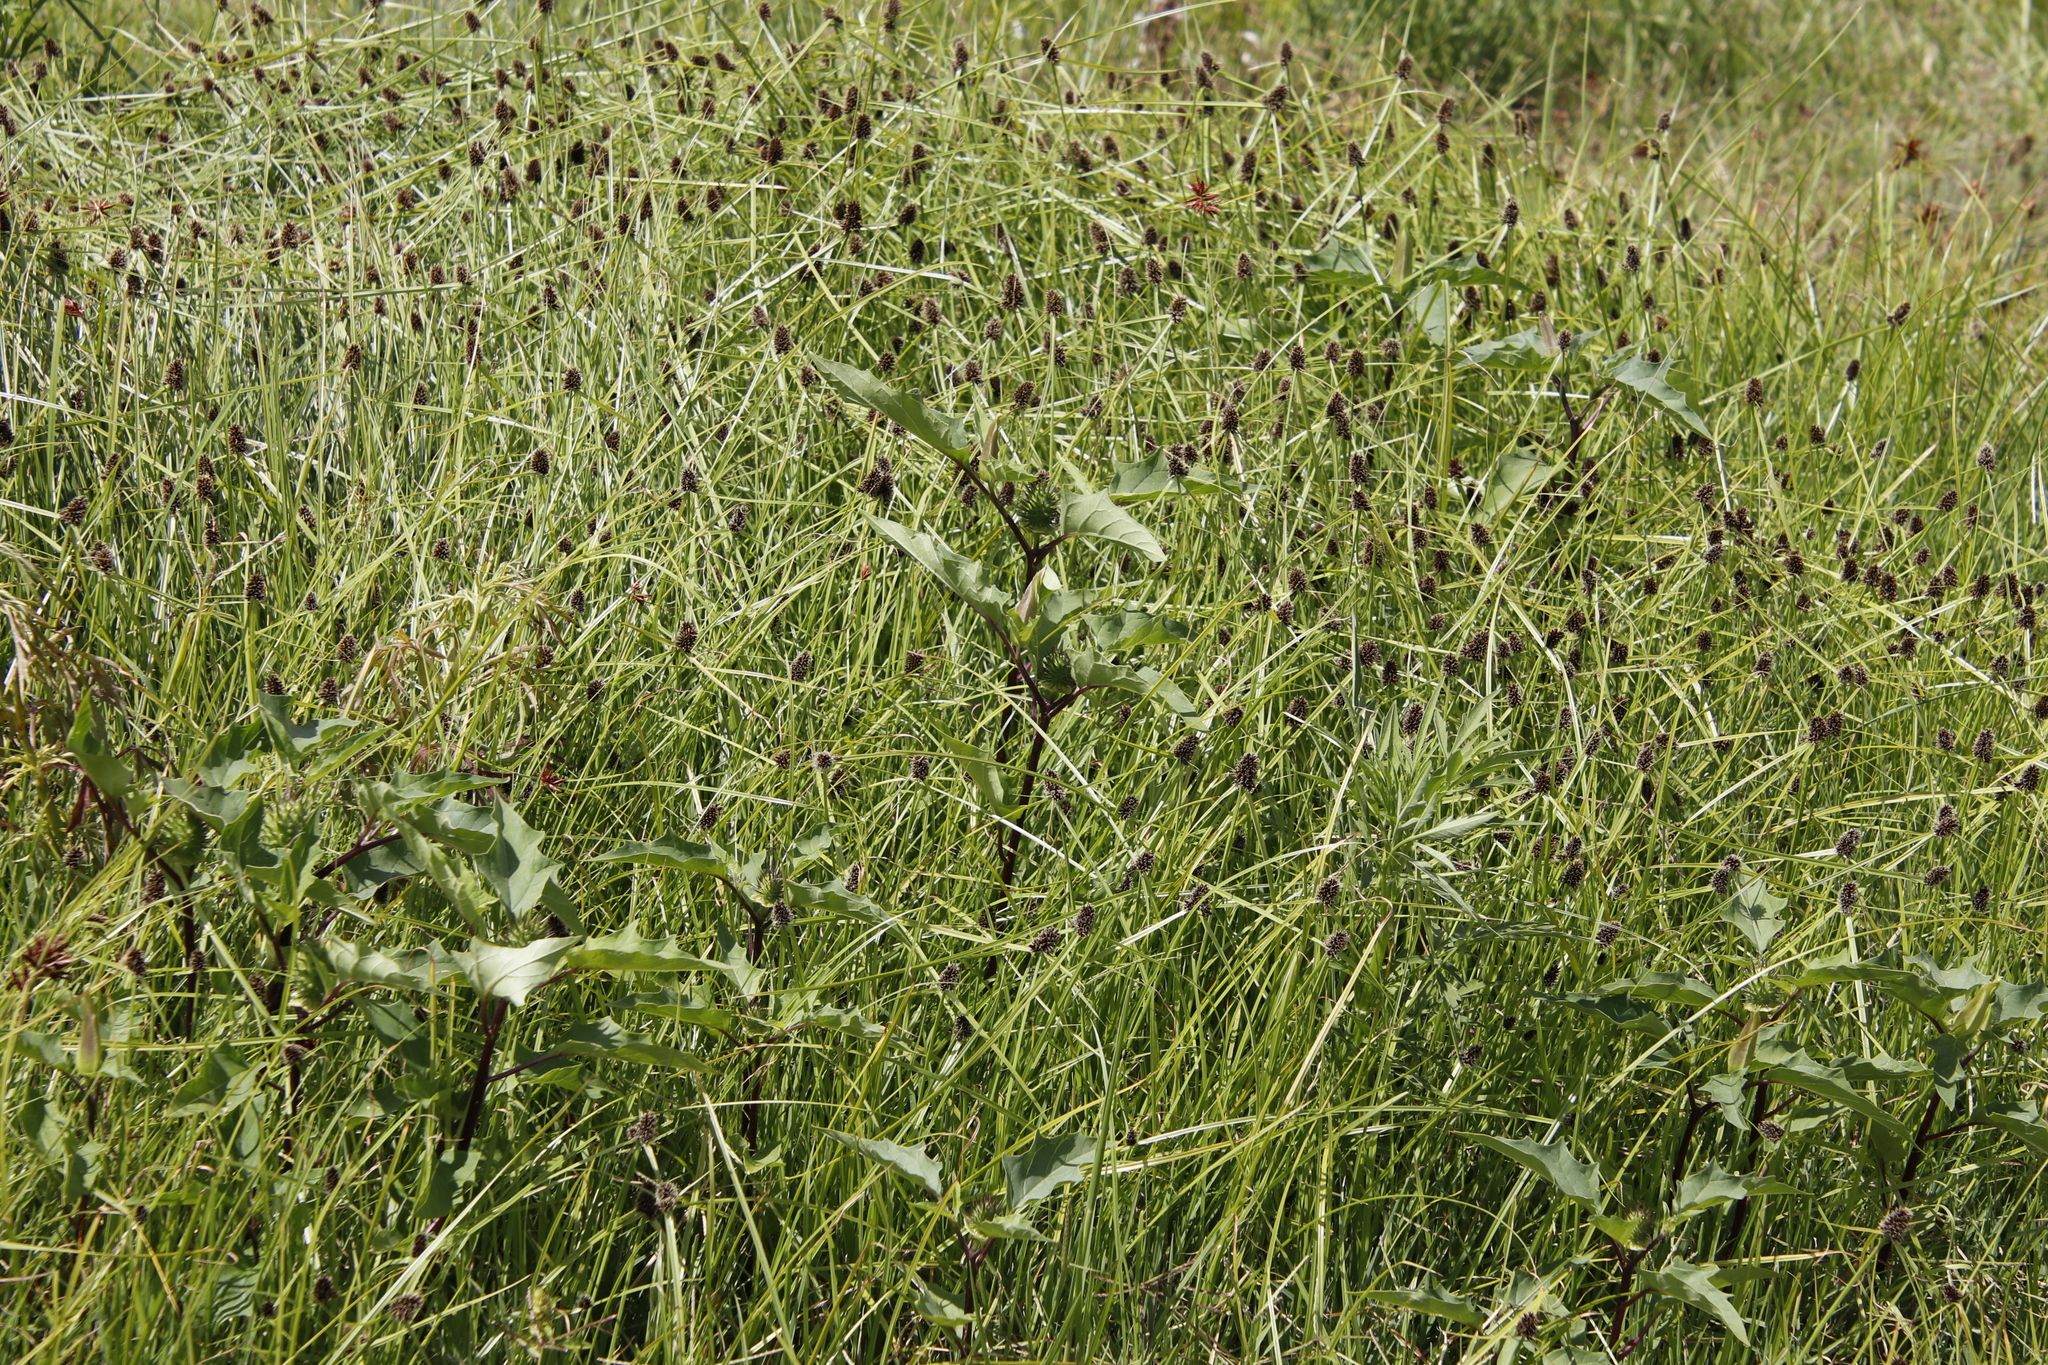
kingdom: Plantae
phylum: Tracheophyta
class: Magnoliopsida
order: Solanales
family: Solanaceae
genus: Datura
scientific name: Datura stramonium
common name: Thorn-apple
